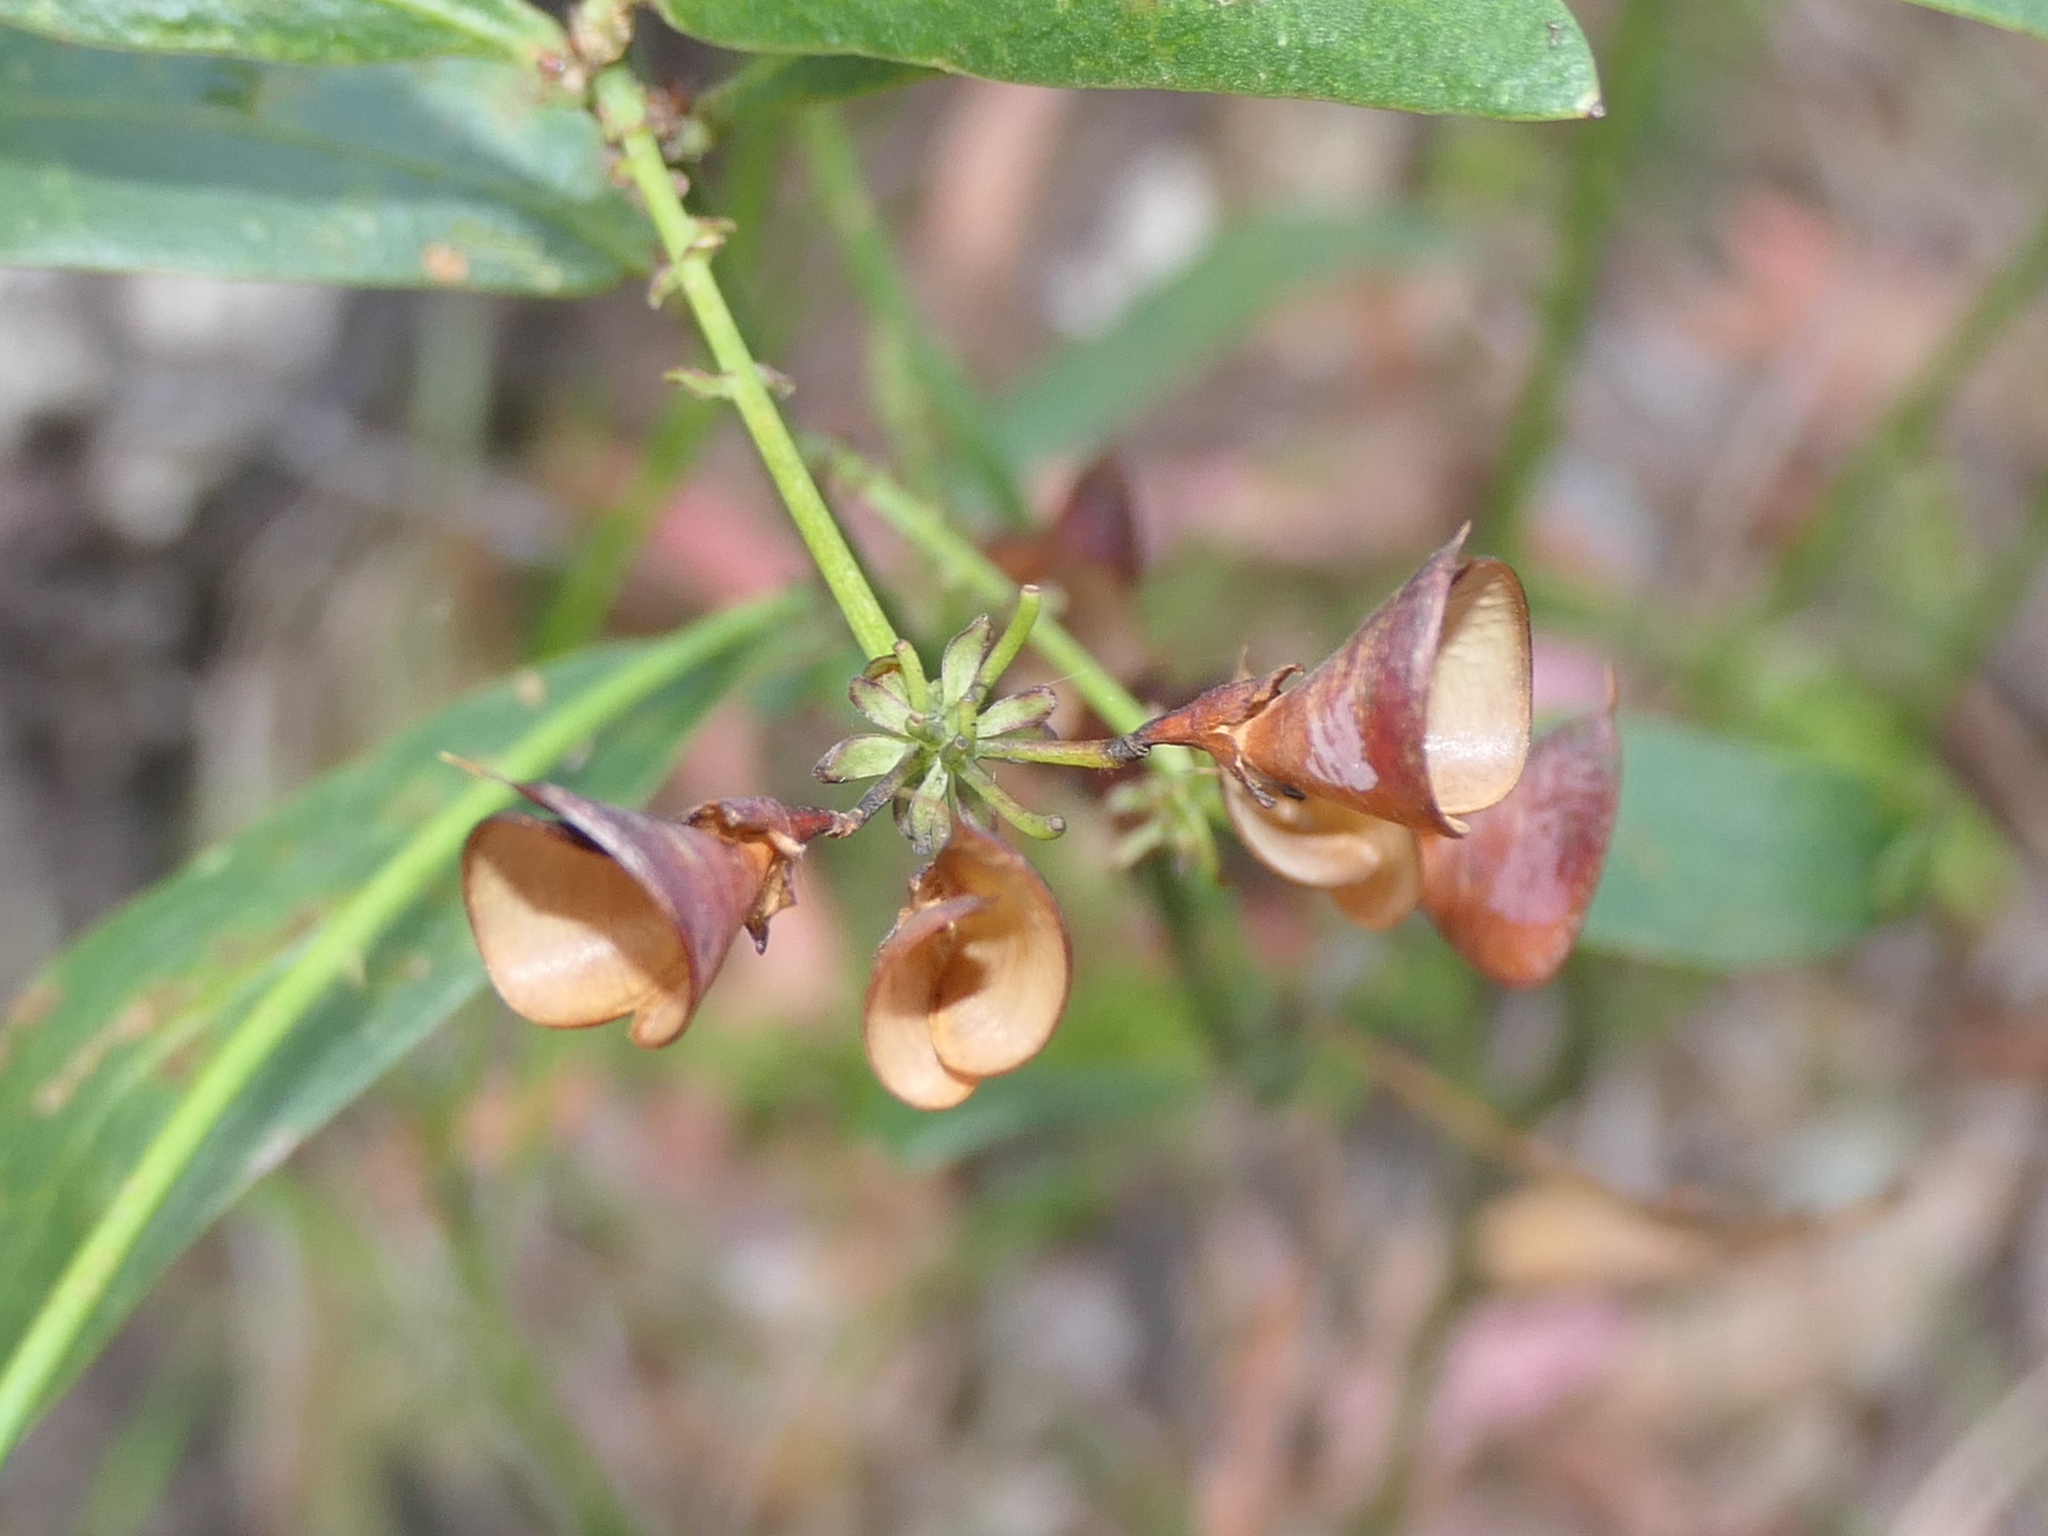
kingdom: Plantae
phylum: Tracheophyta
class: Magnoliopsida
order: Fabales
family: Fabaceae
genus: Daviesia
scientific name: Daviesia corymbosa
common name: Narrow-leaf bitter-pea
